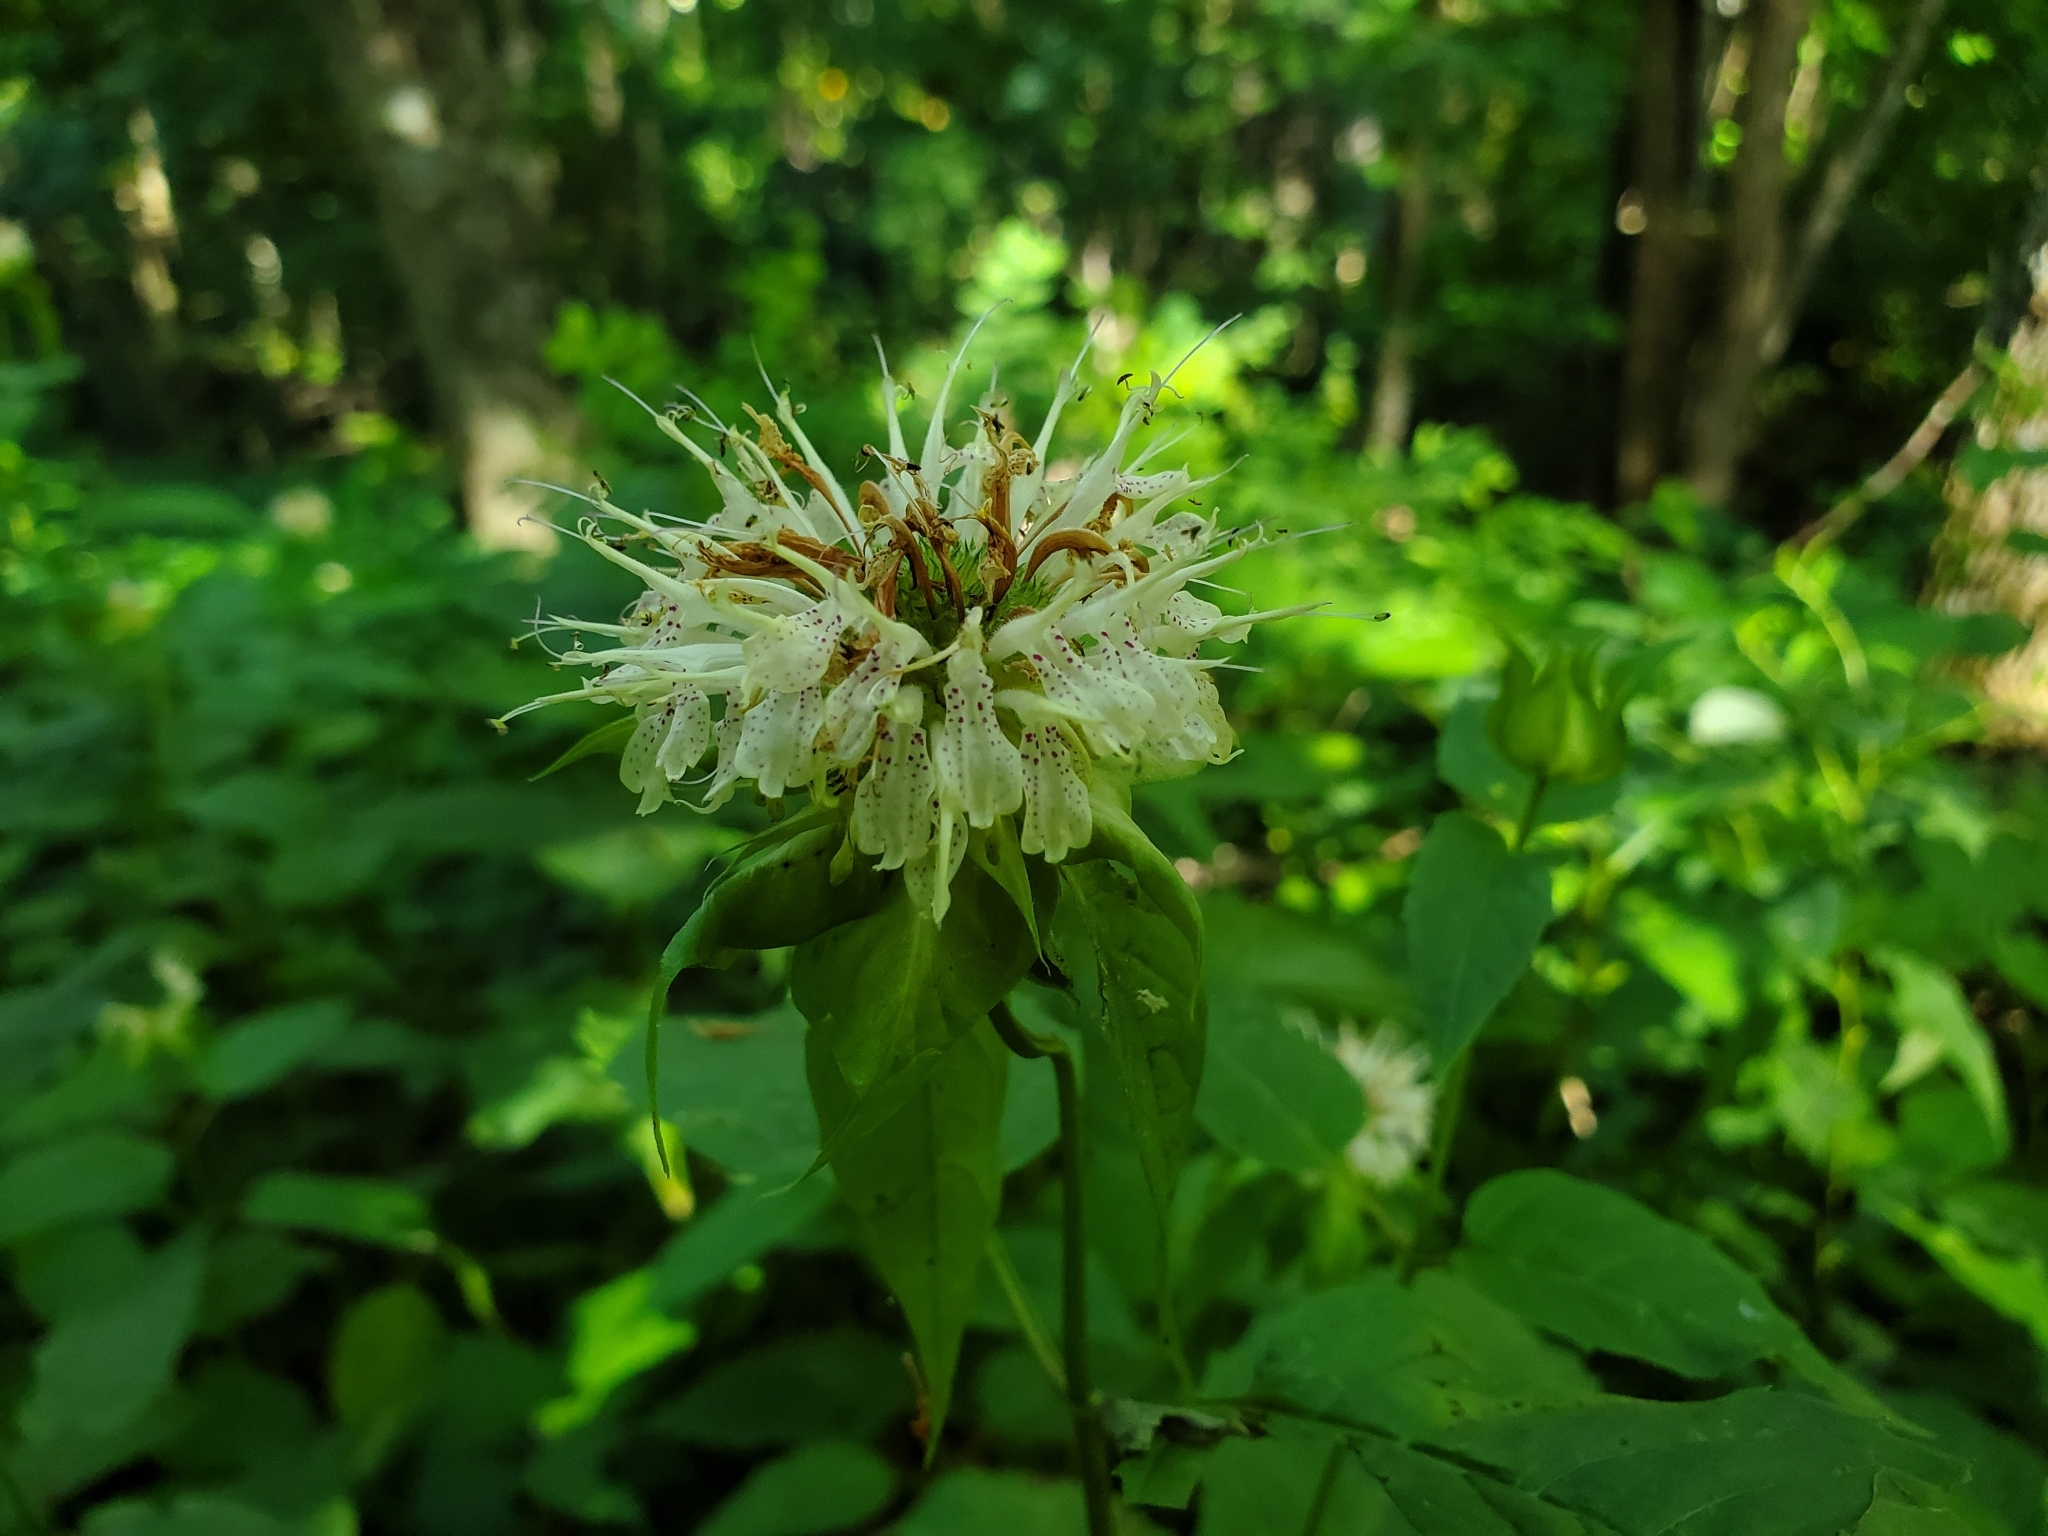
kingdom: Plantae
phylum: Tracheophyta
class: Magnoliopsida
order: Lamiales
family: Lamiaceae
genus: Monarda
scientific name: Monarda clinopodia
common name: Basil beebalm
